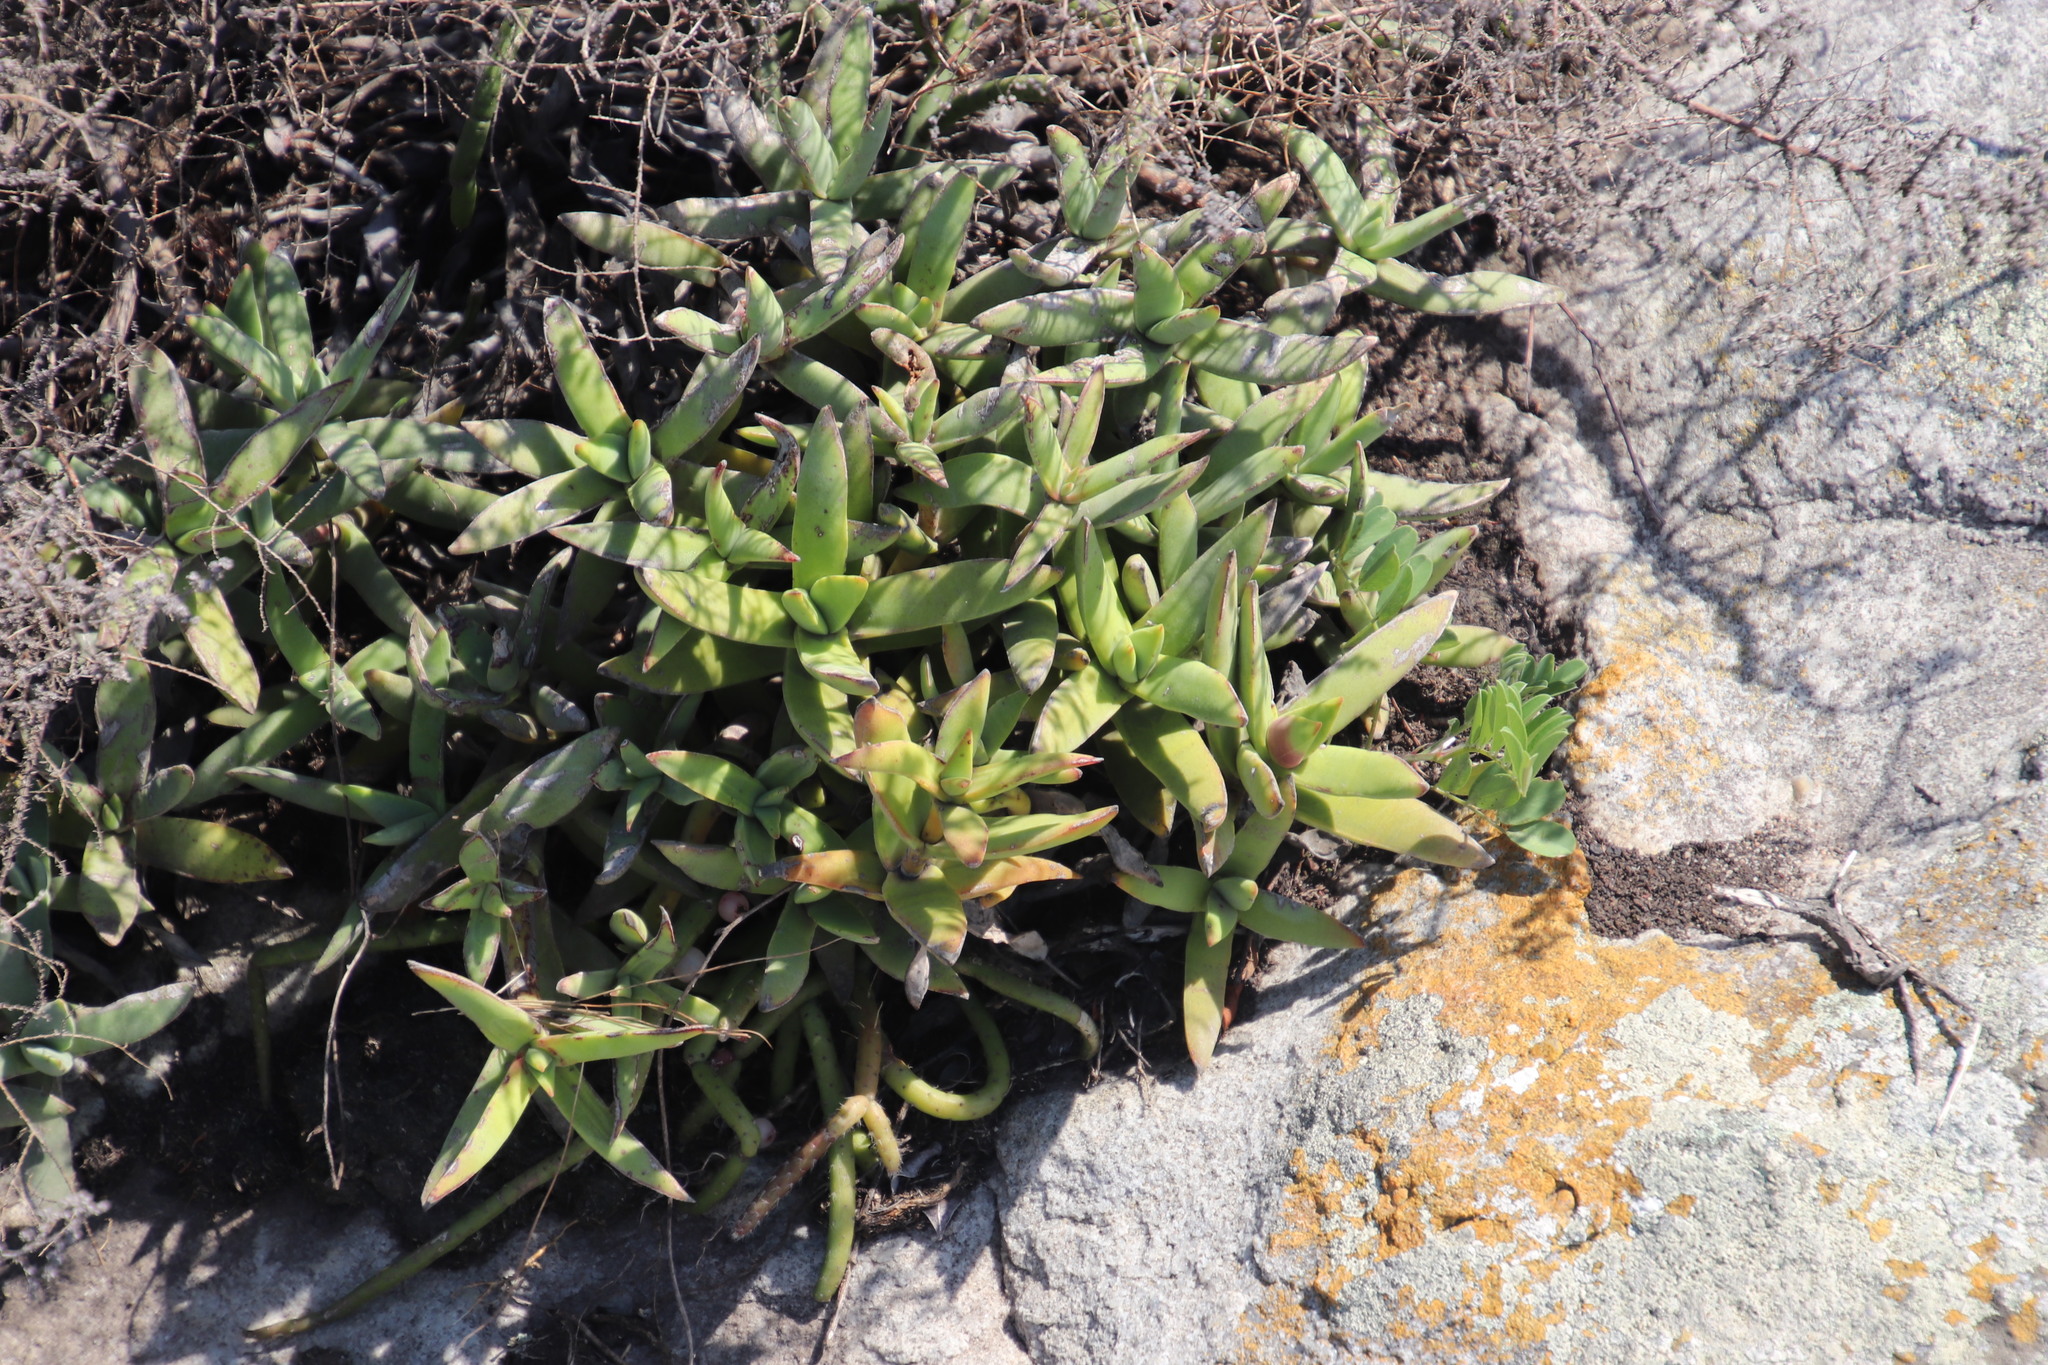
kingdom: Plantae
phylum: Tracheophyta
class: Magnoliopsida
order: Saxifragales
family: Crassulaceae
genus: Crassula
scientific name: Crassula perfoliata
